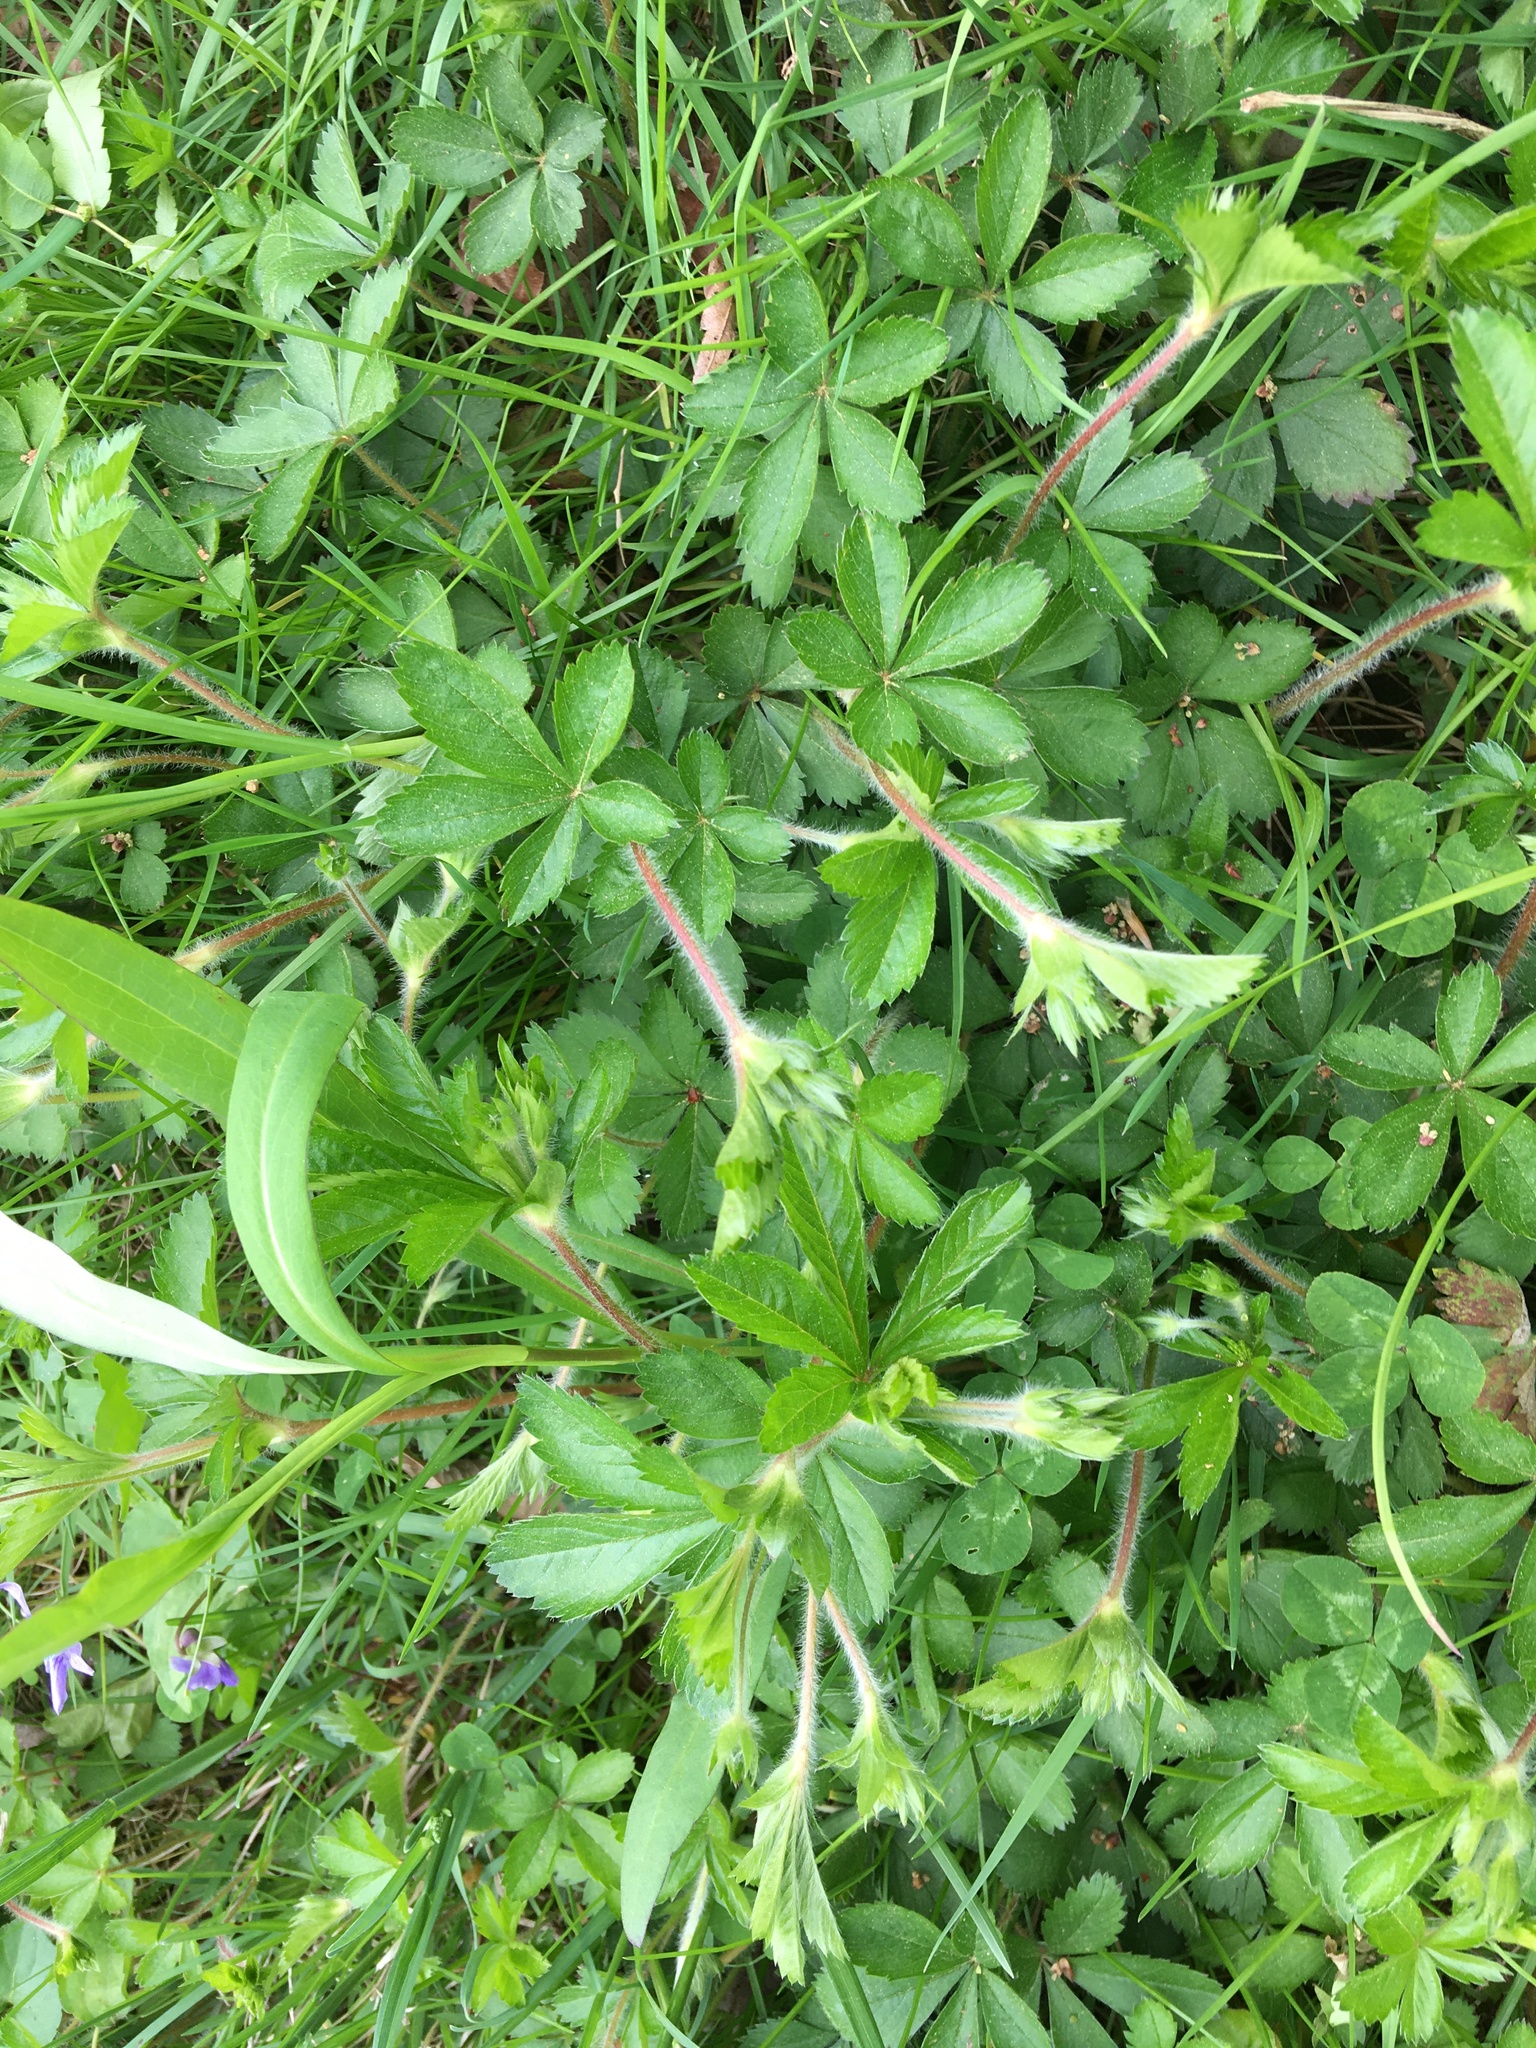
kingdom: Plantae
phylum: Tracheophyta
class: Magnoliopsida
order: Rosales
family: Rosaceae
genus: Potentilla
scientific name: Potentilla simplex
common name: Old field cinquefoil
